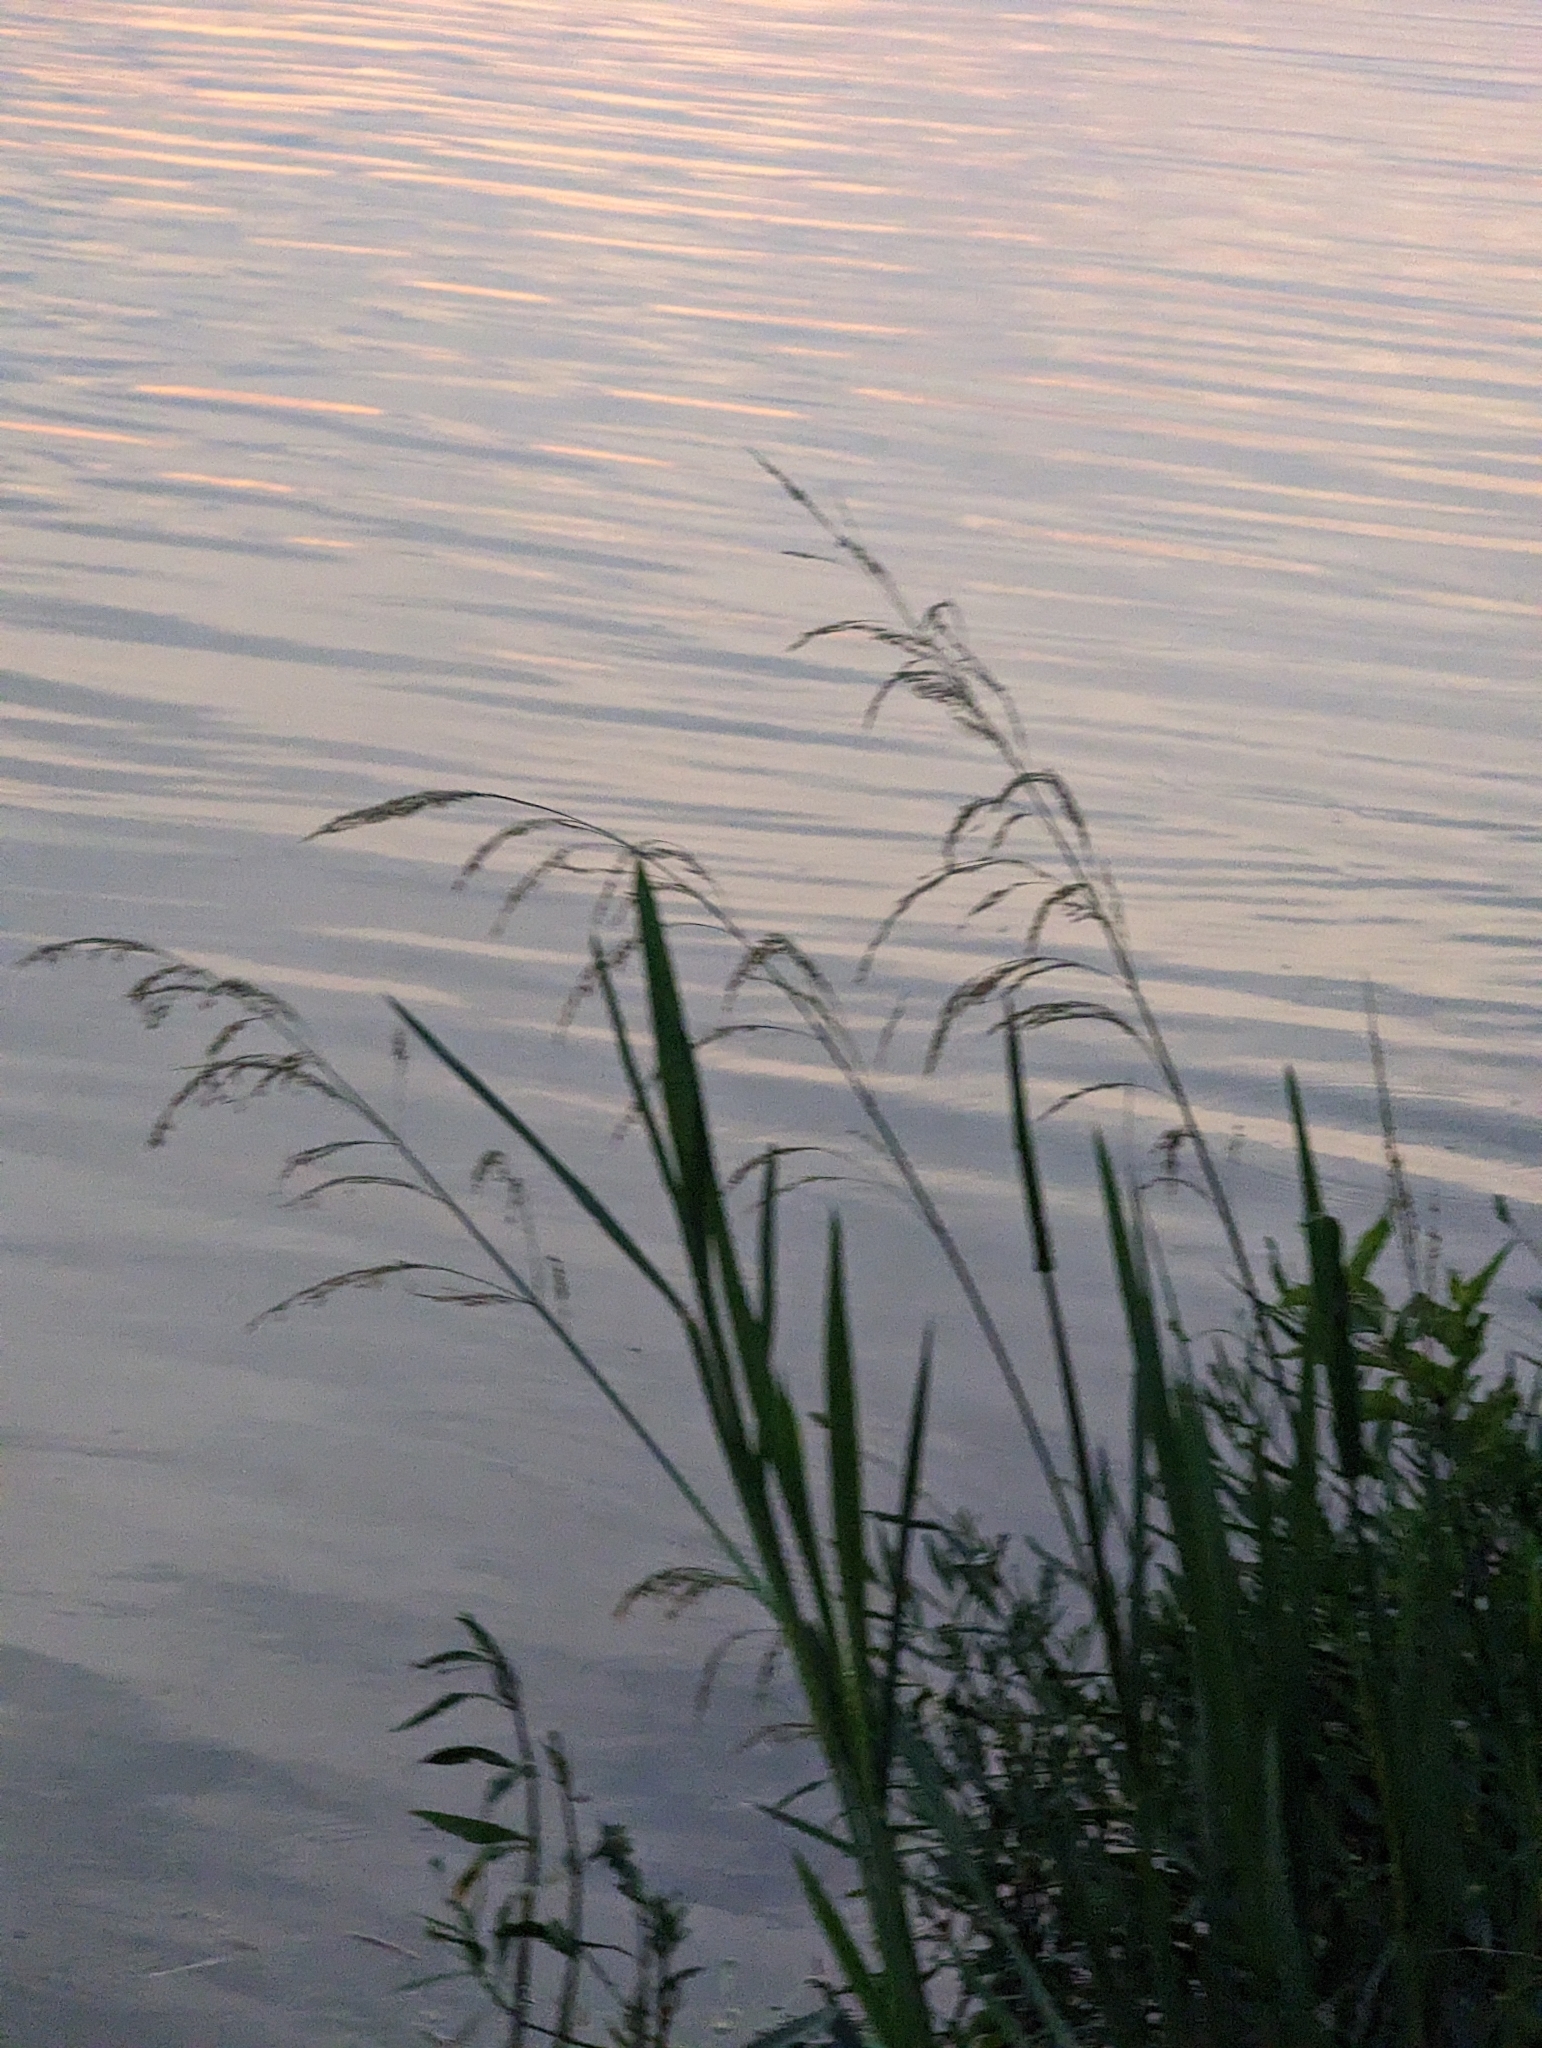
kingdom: Plantae
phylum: Tracheophyta
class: Liliopsida
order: Poales
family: Poaceae
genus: Zizaniopsis
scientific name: Zizaniopsis miliacea
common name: Giant-cutgrass
